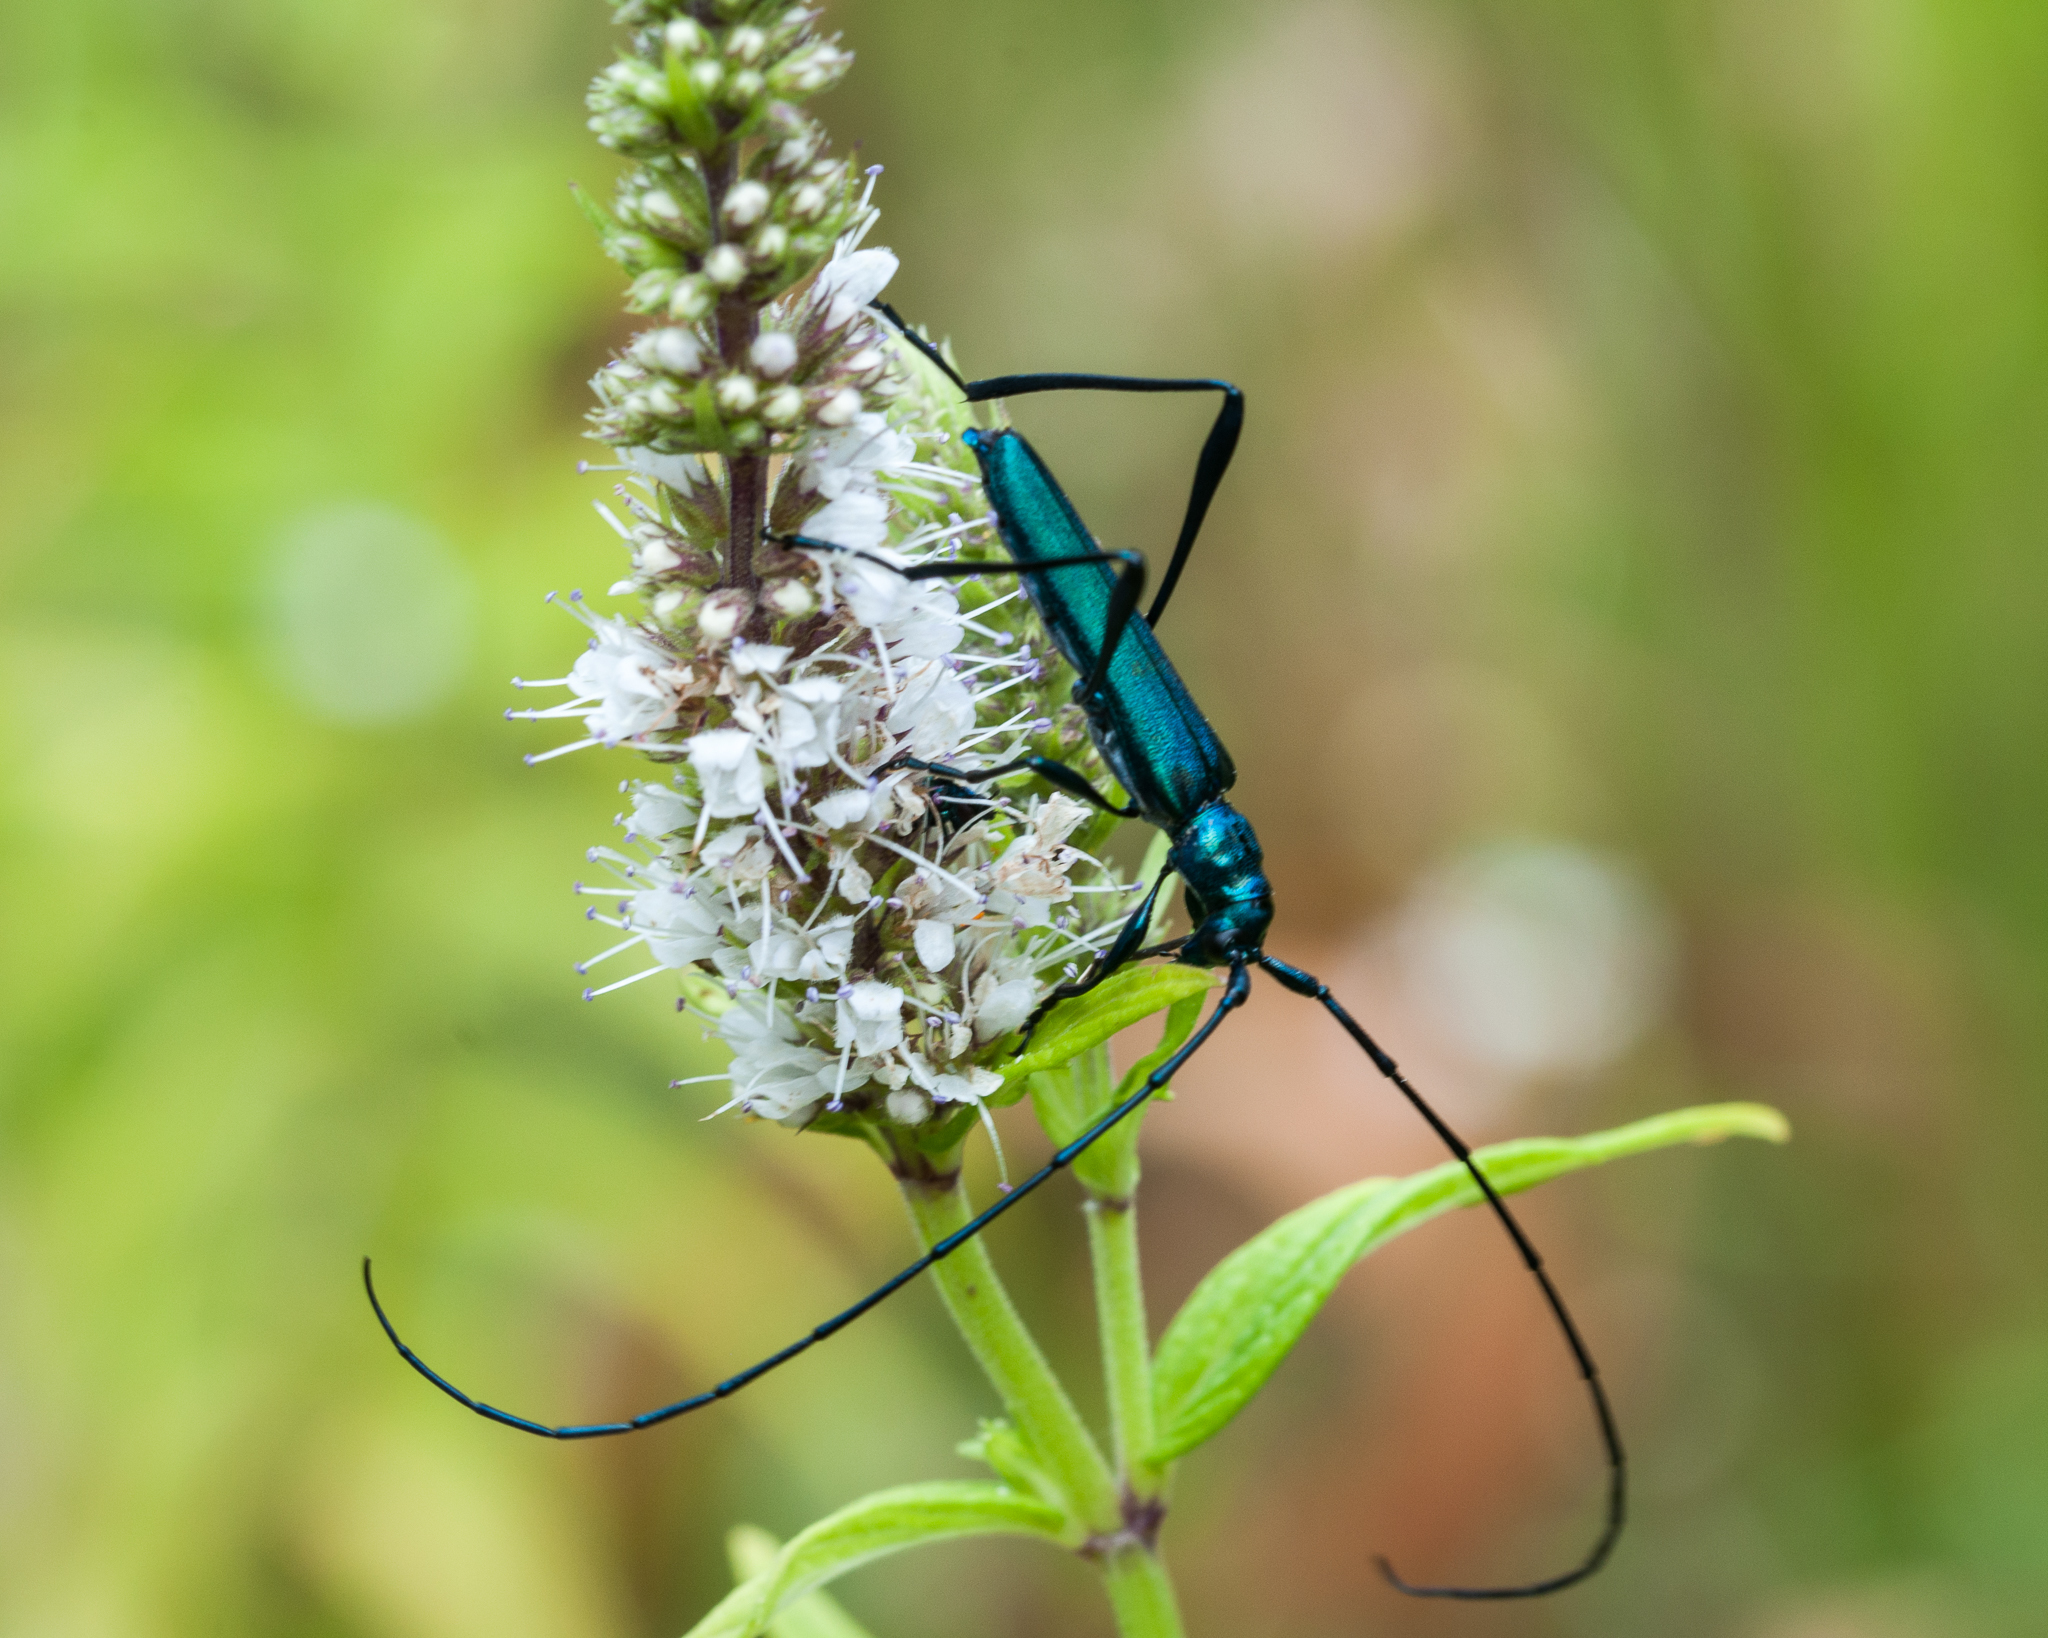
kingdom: Animalia
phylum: Arthropoda
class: Insecta
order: Coleoptera
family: Cerambycidae
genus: Promeces
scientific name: Promeces longipes
